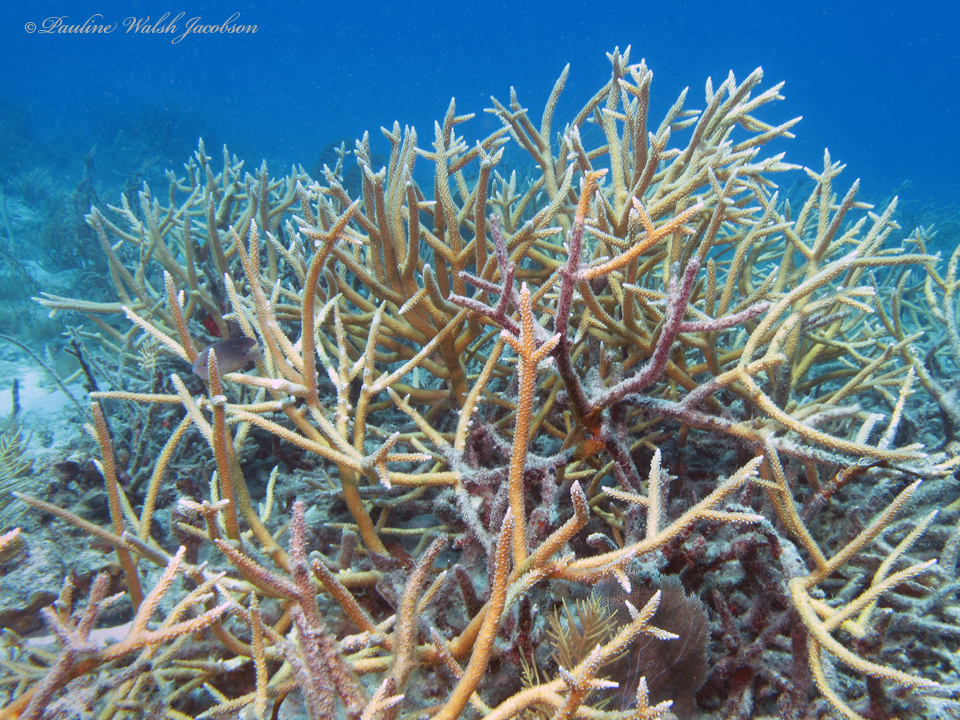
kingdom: Animalia
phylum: Cnidaria
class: Anthozoa
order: Scleractinia
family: Acroporidae
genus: Acropora
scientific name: Acropora cervicornis
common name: Staghorn coral
